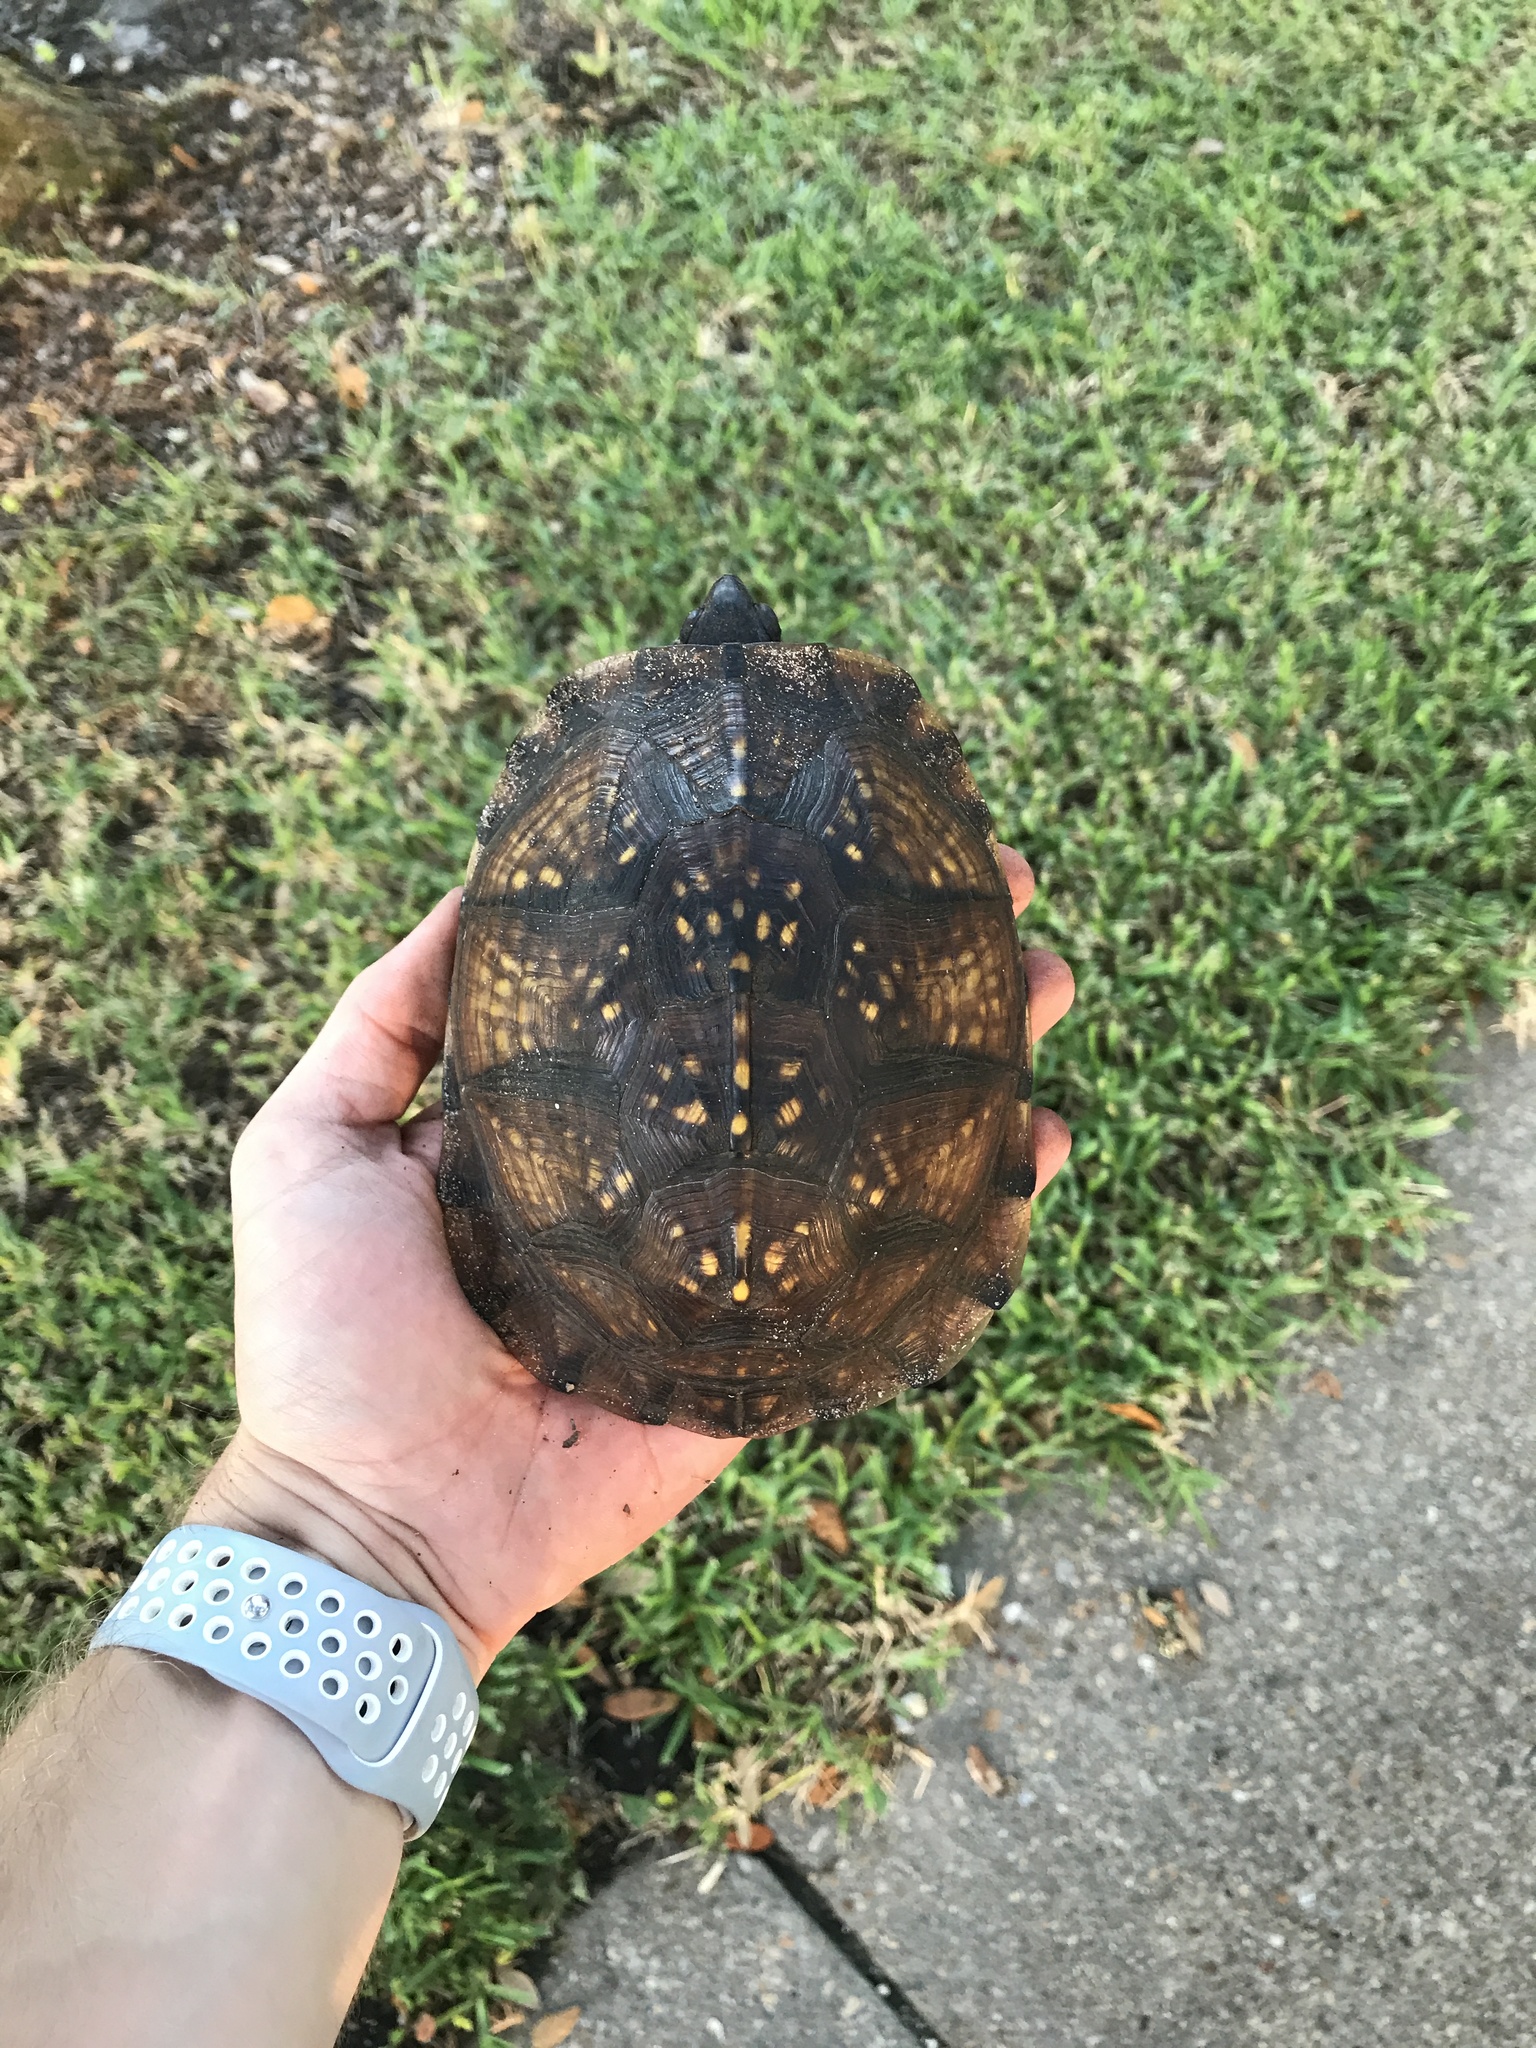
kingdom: Animalia
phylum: Chordata
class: Testudines
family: Emydidae
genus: Terrapene
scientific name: Terrapene carolina
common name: Common box turtle
